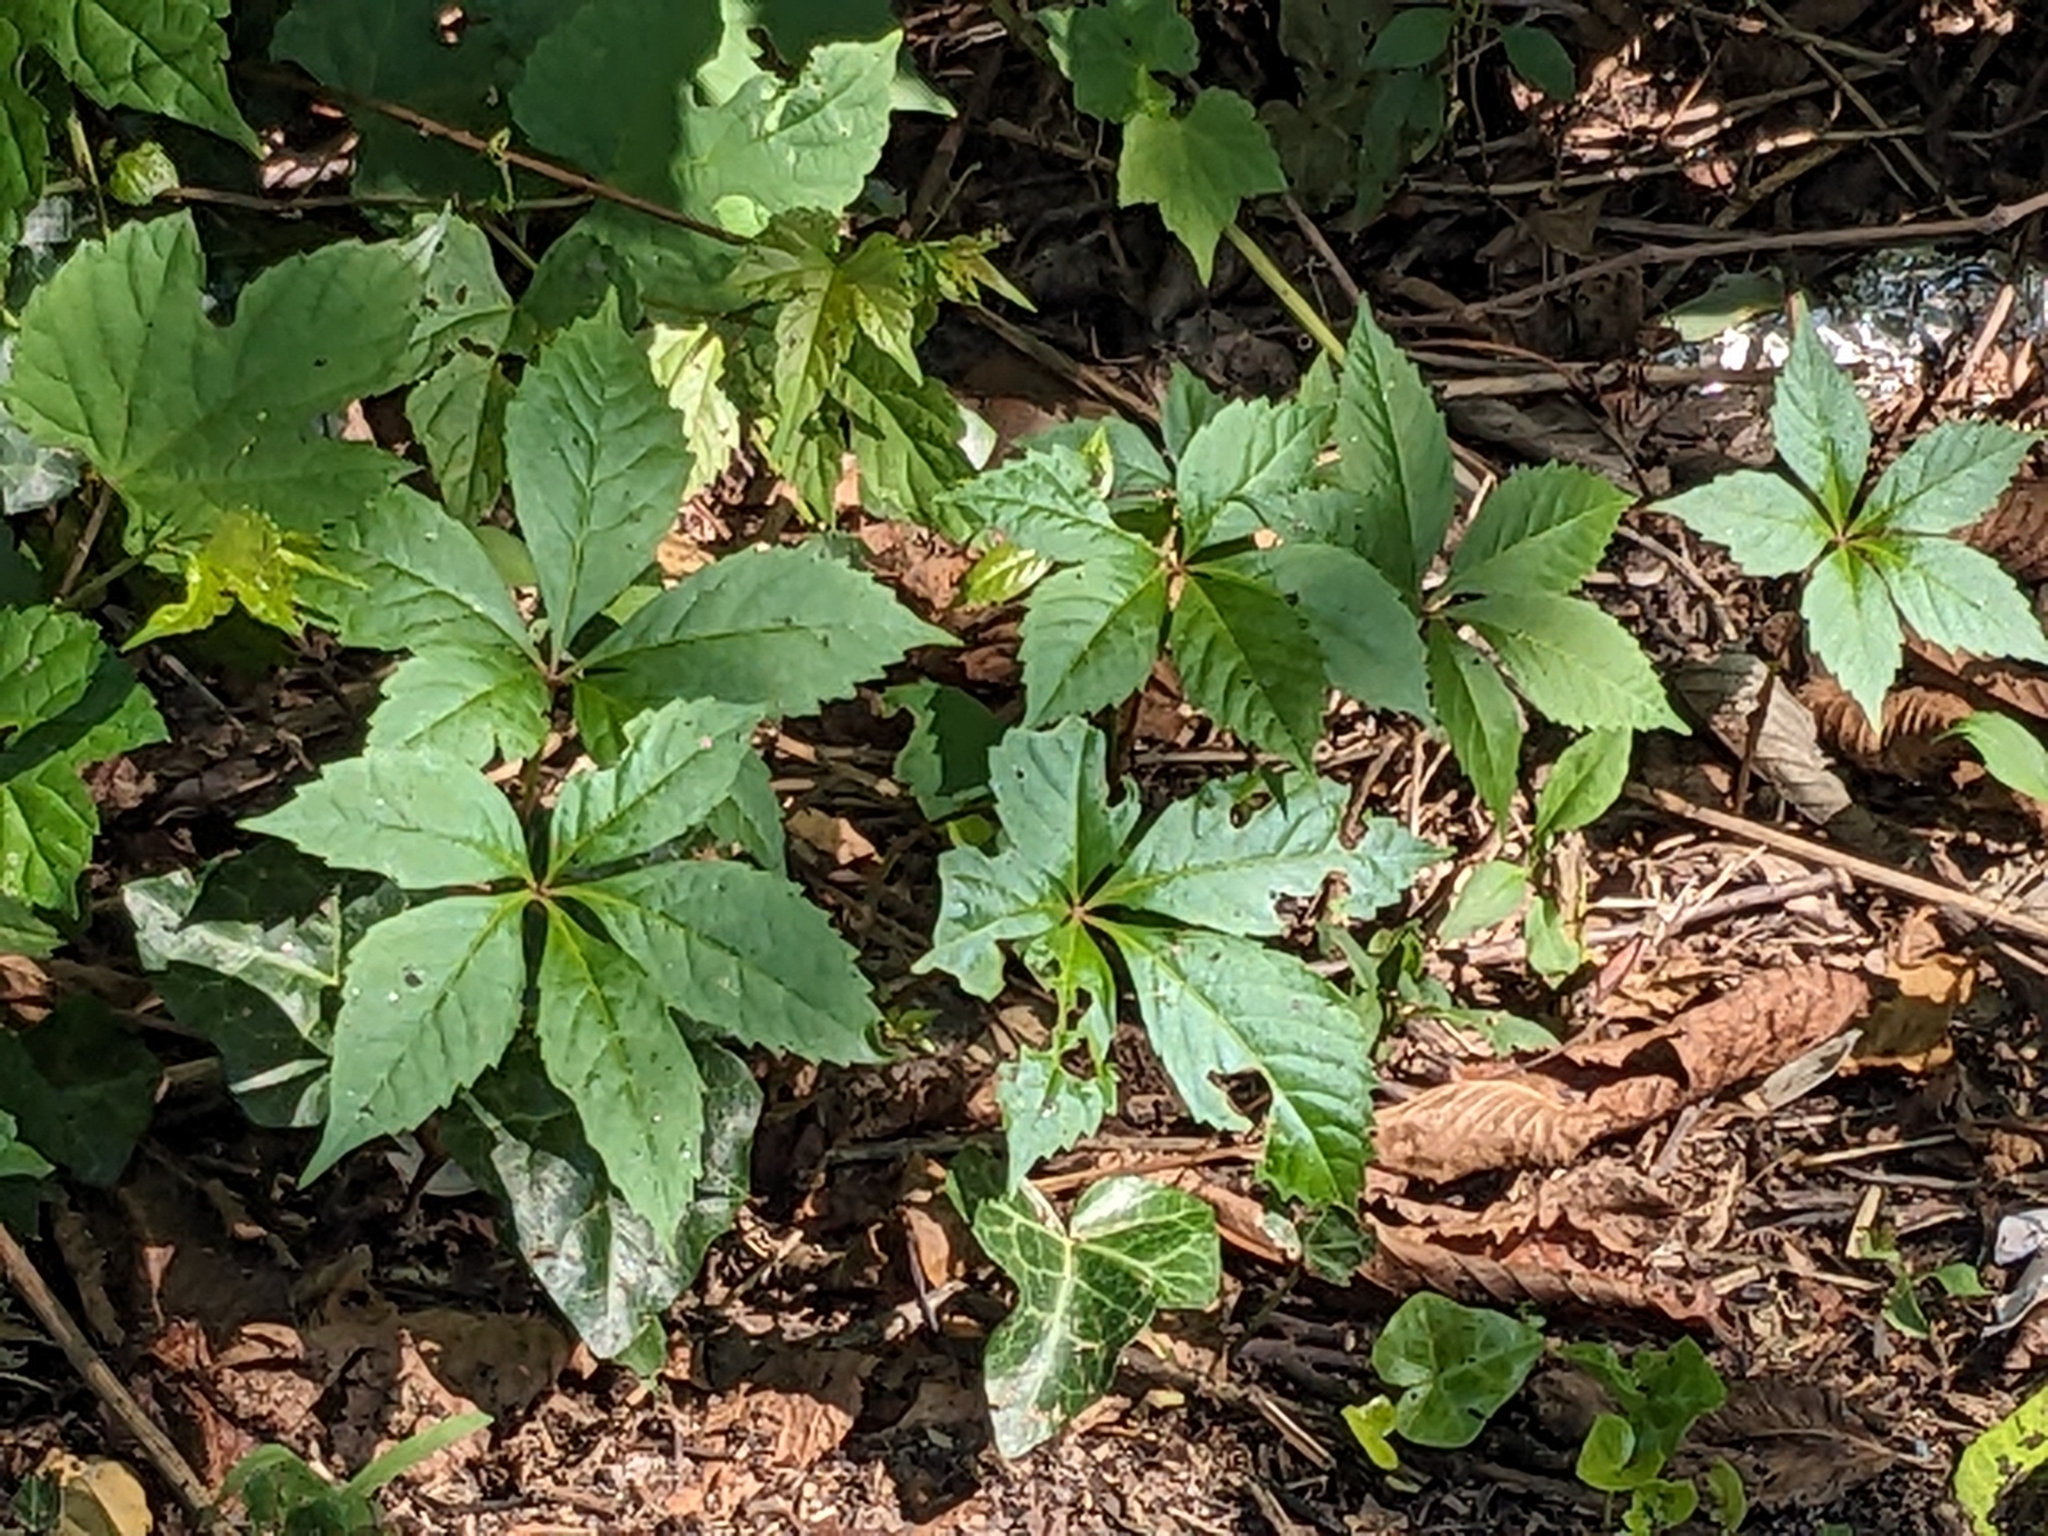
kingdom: Plantae
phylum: Tracheophyta
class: Magnoliopsida
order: Vitales
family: Vitaceae
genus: Parthenocissus
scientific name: Parthenocissus quinquefolia
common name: Virginia-creeper
